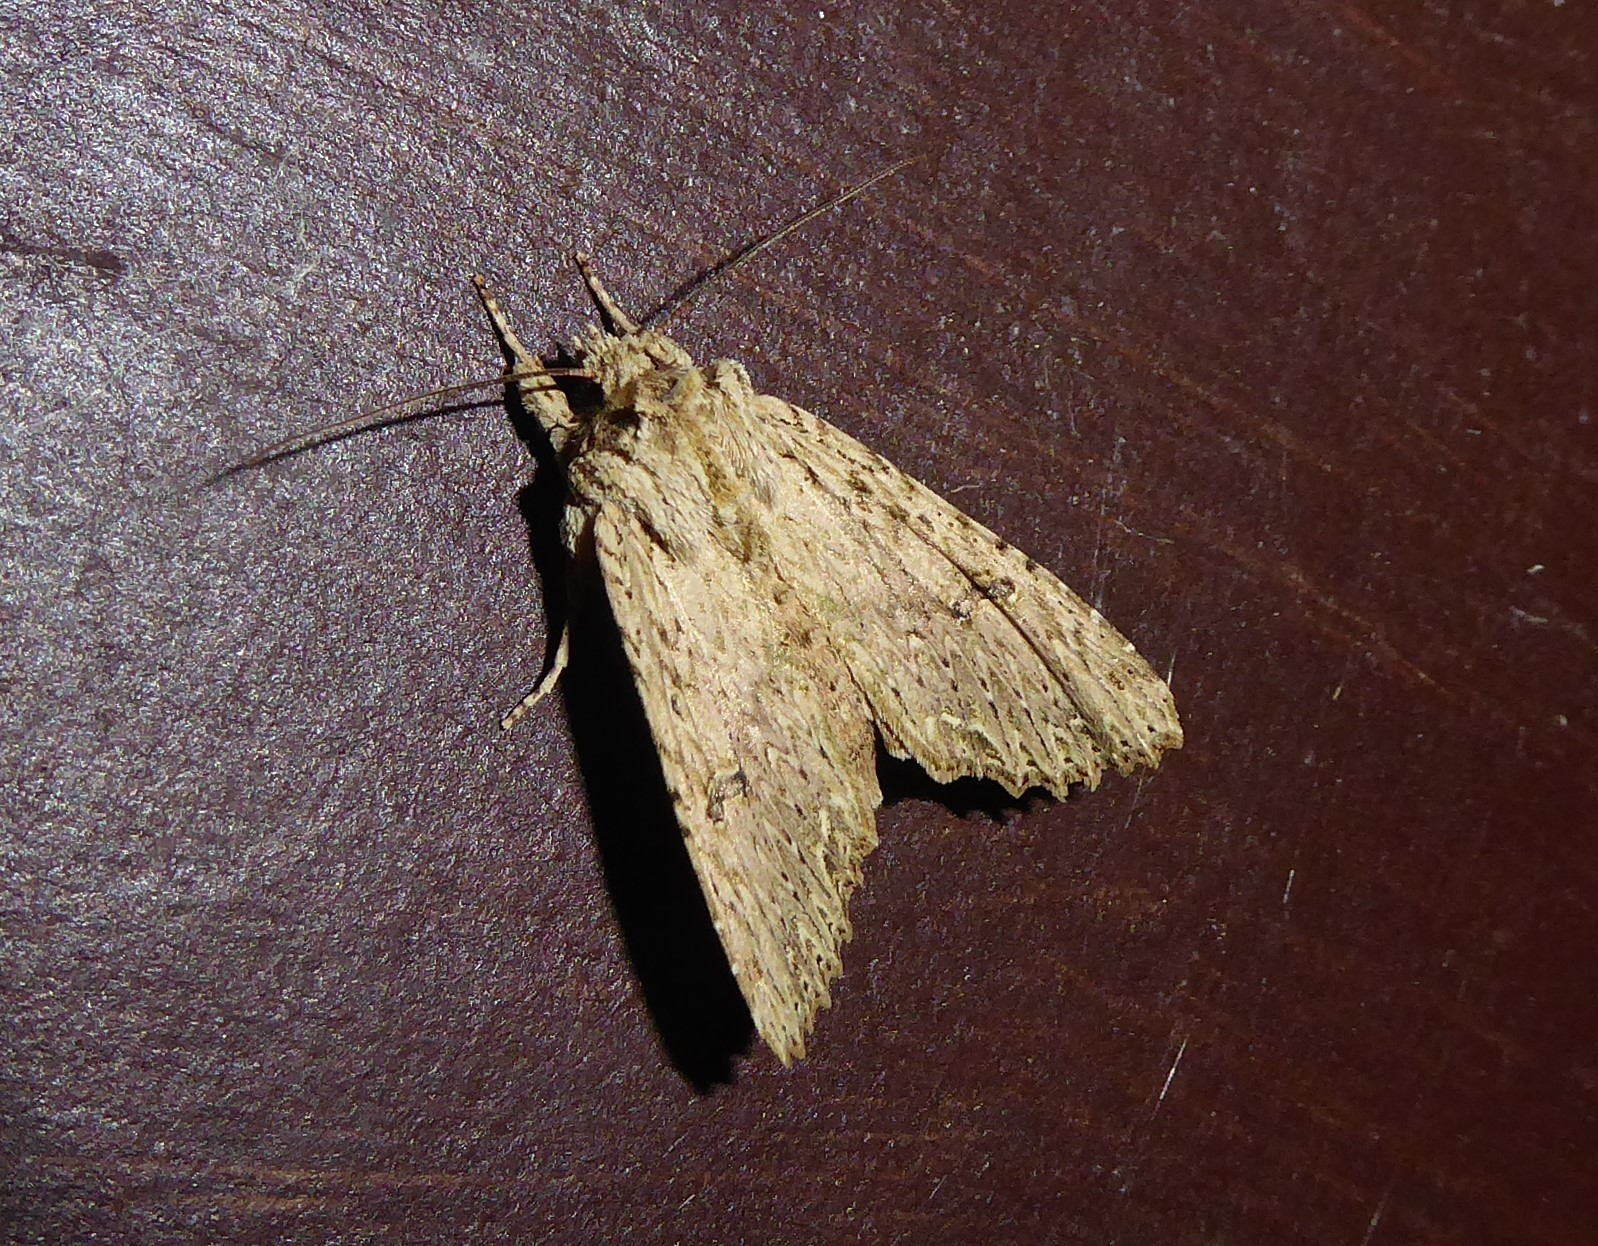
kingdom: Animalia
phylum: Arthropoda
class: Insecta
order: Lepidoptera
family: Noctuidae
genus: Meterana
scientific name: Meterana pansicolor
